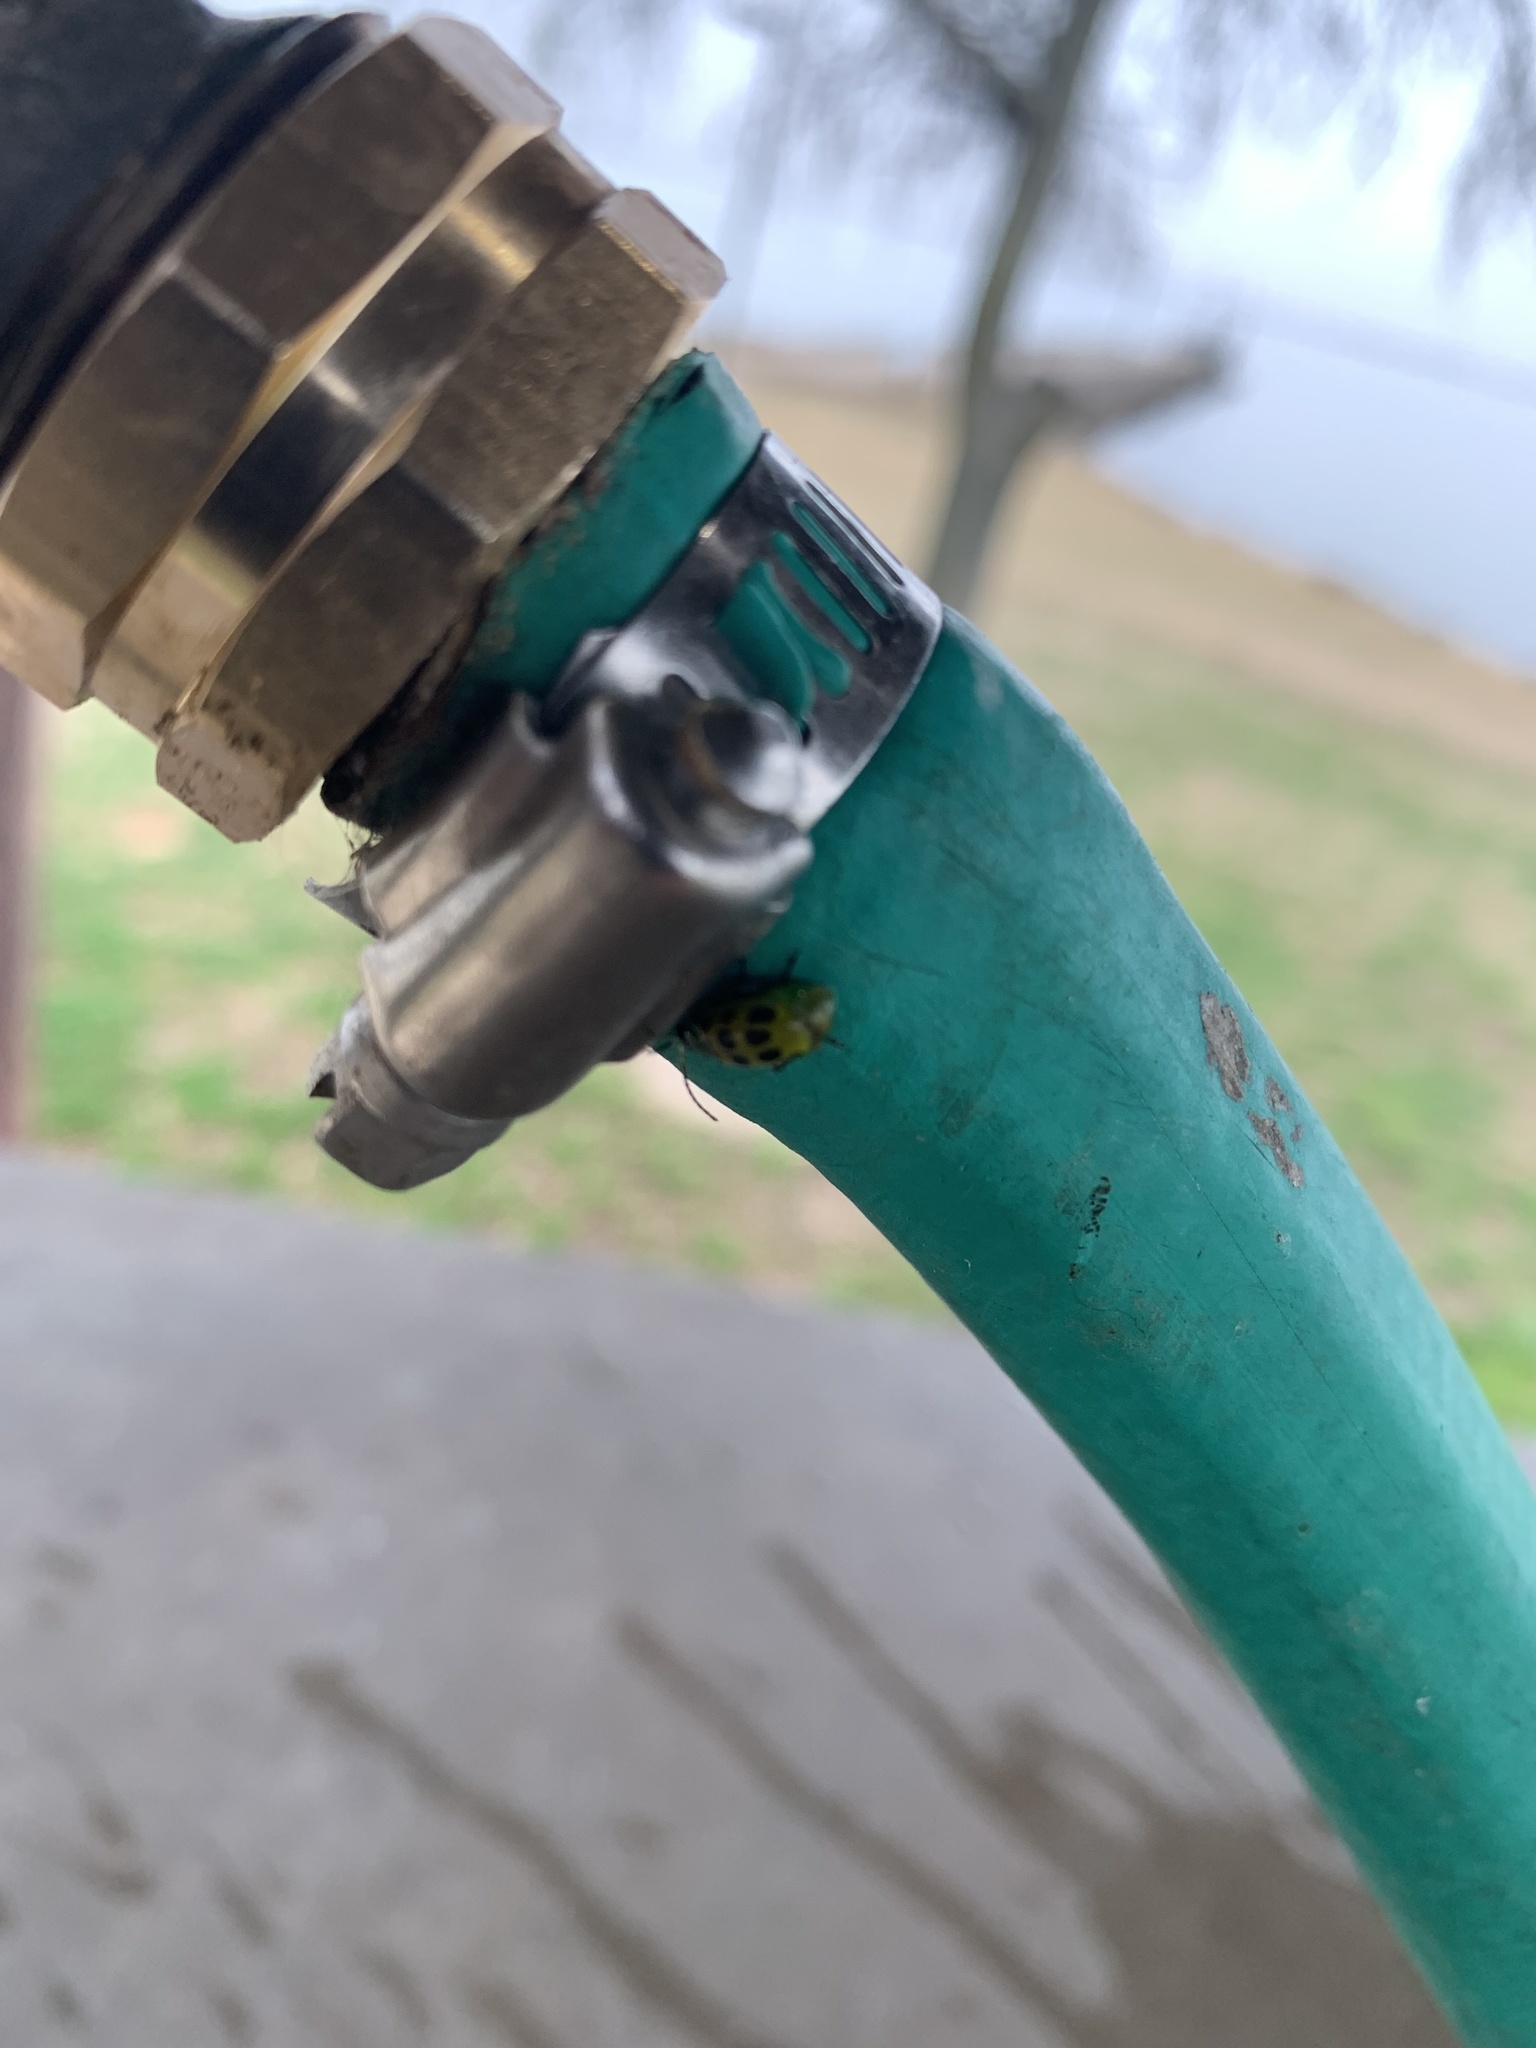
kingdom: Animalia
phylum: Arthropoda
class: Insecta
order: Coleoptera
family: Chrysomelidae
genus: Diabrotica
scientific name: Diabrotica undecimpunctata
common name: Spotted cucumber beetle
